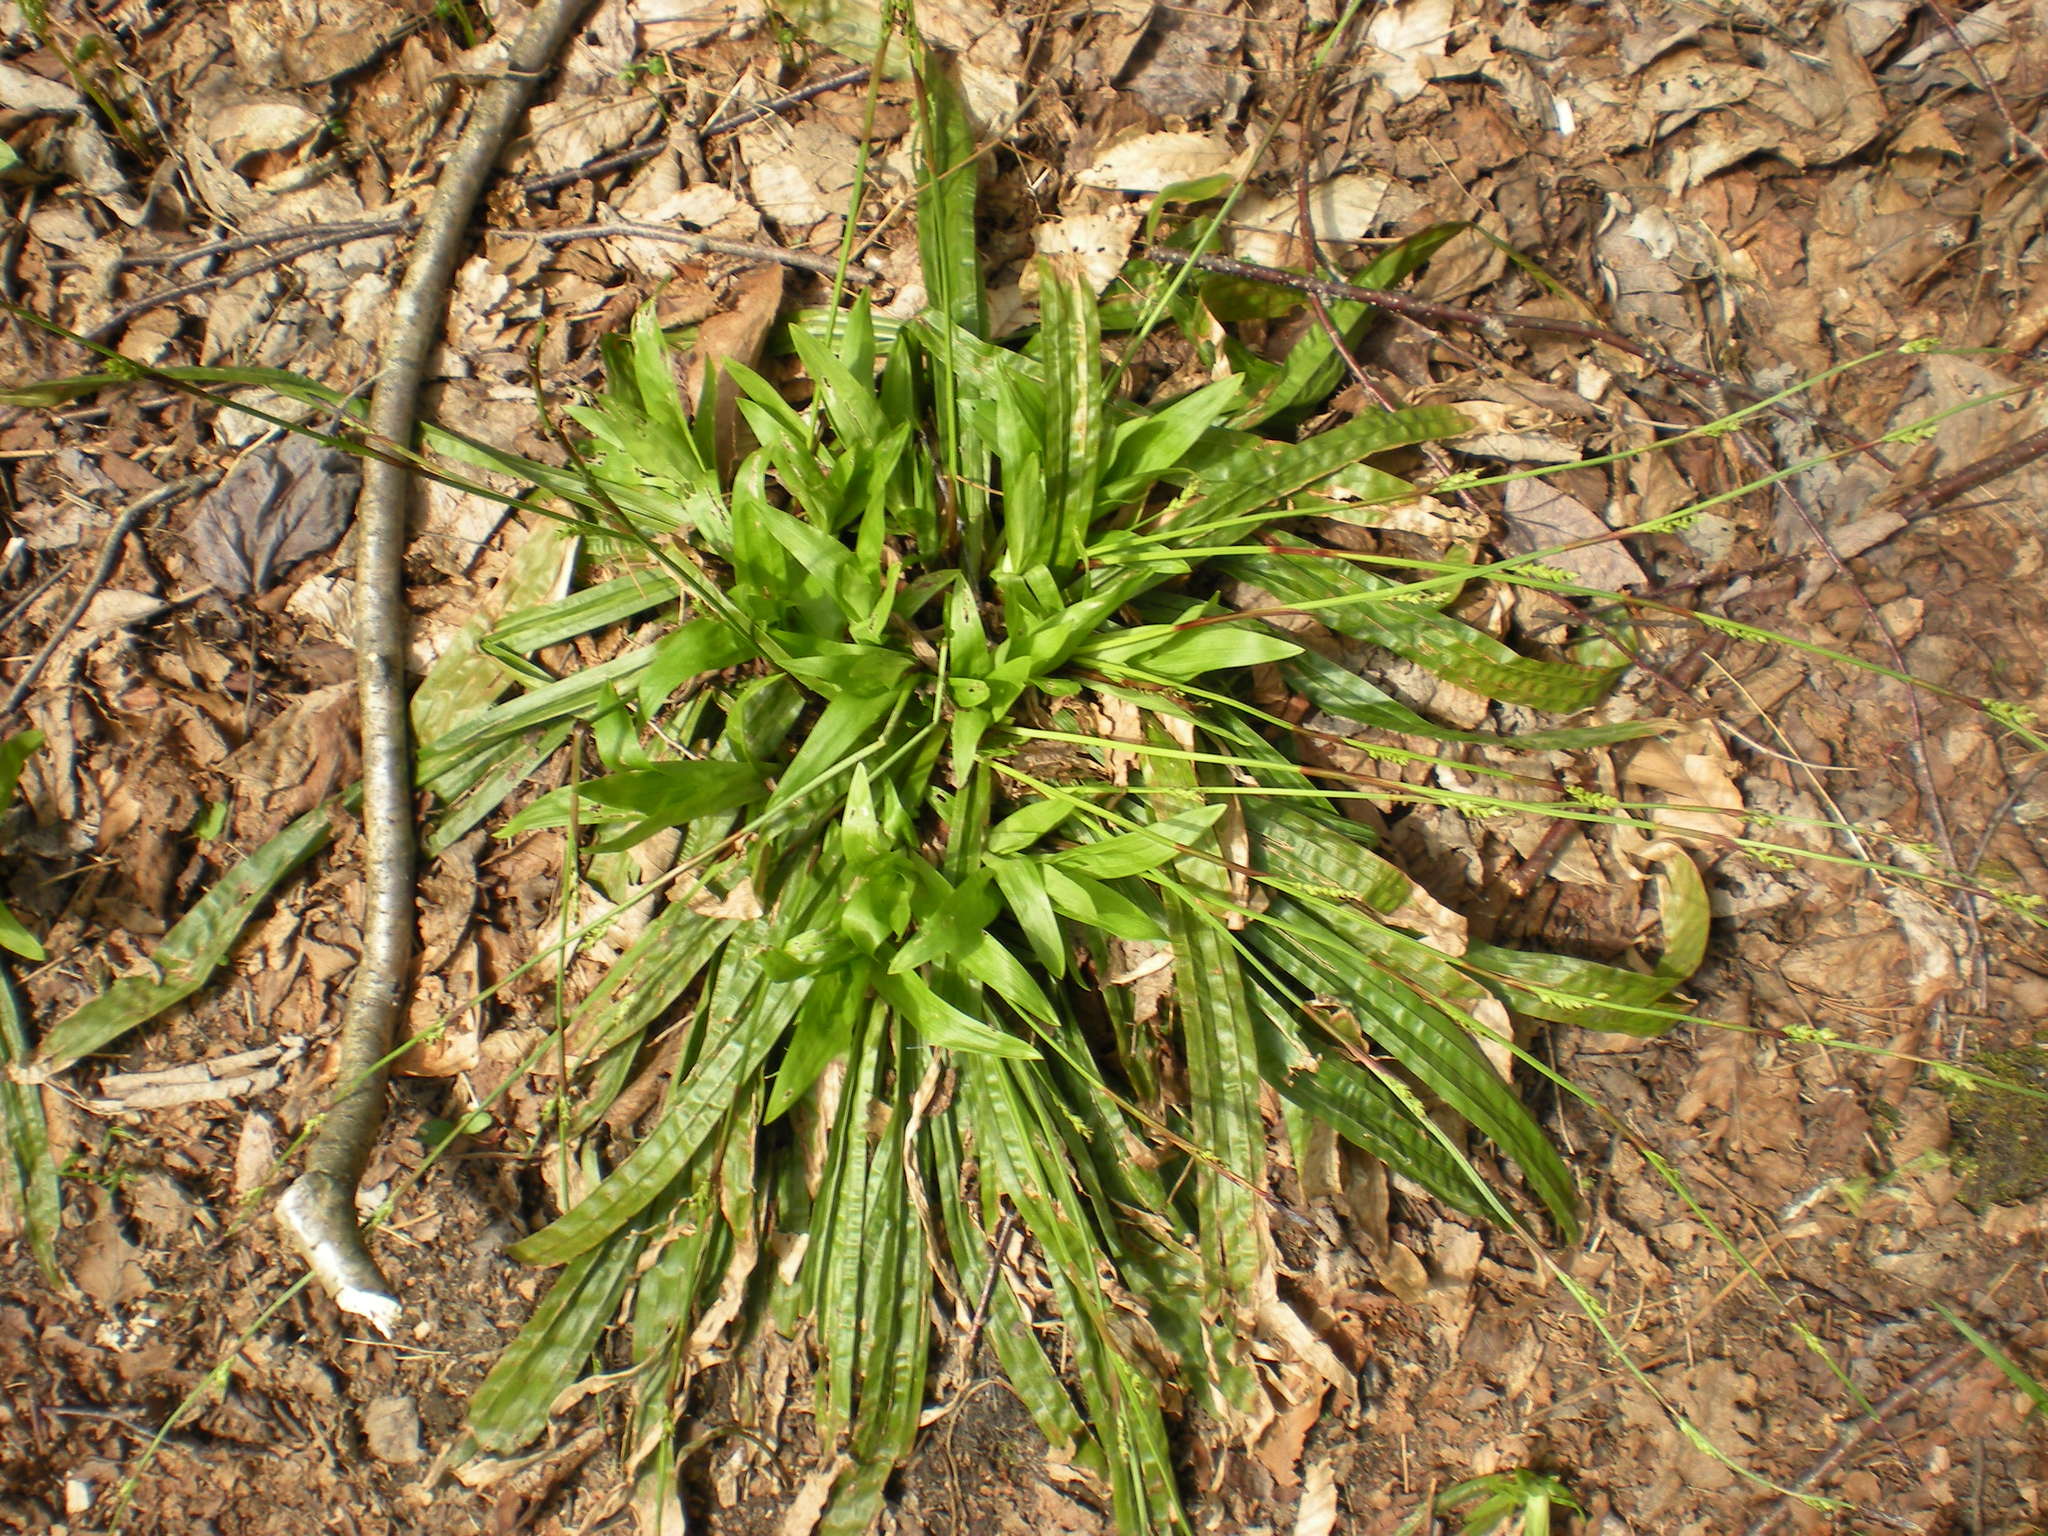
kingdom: Plantae
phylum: Tracheophyta
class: Liliopsida
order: Poales
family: Cyperaceae
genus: Carex
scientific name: Carex plantaginea
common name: Plantain-leaved sedge
